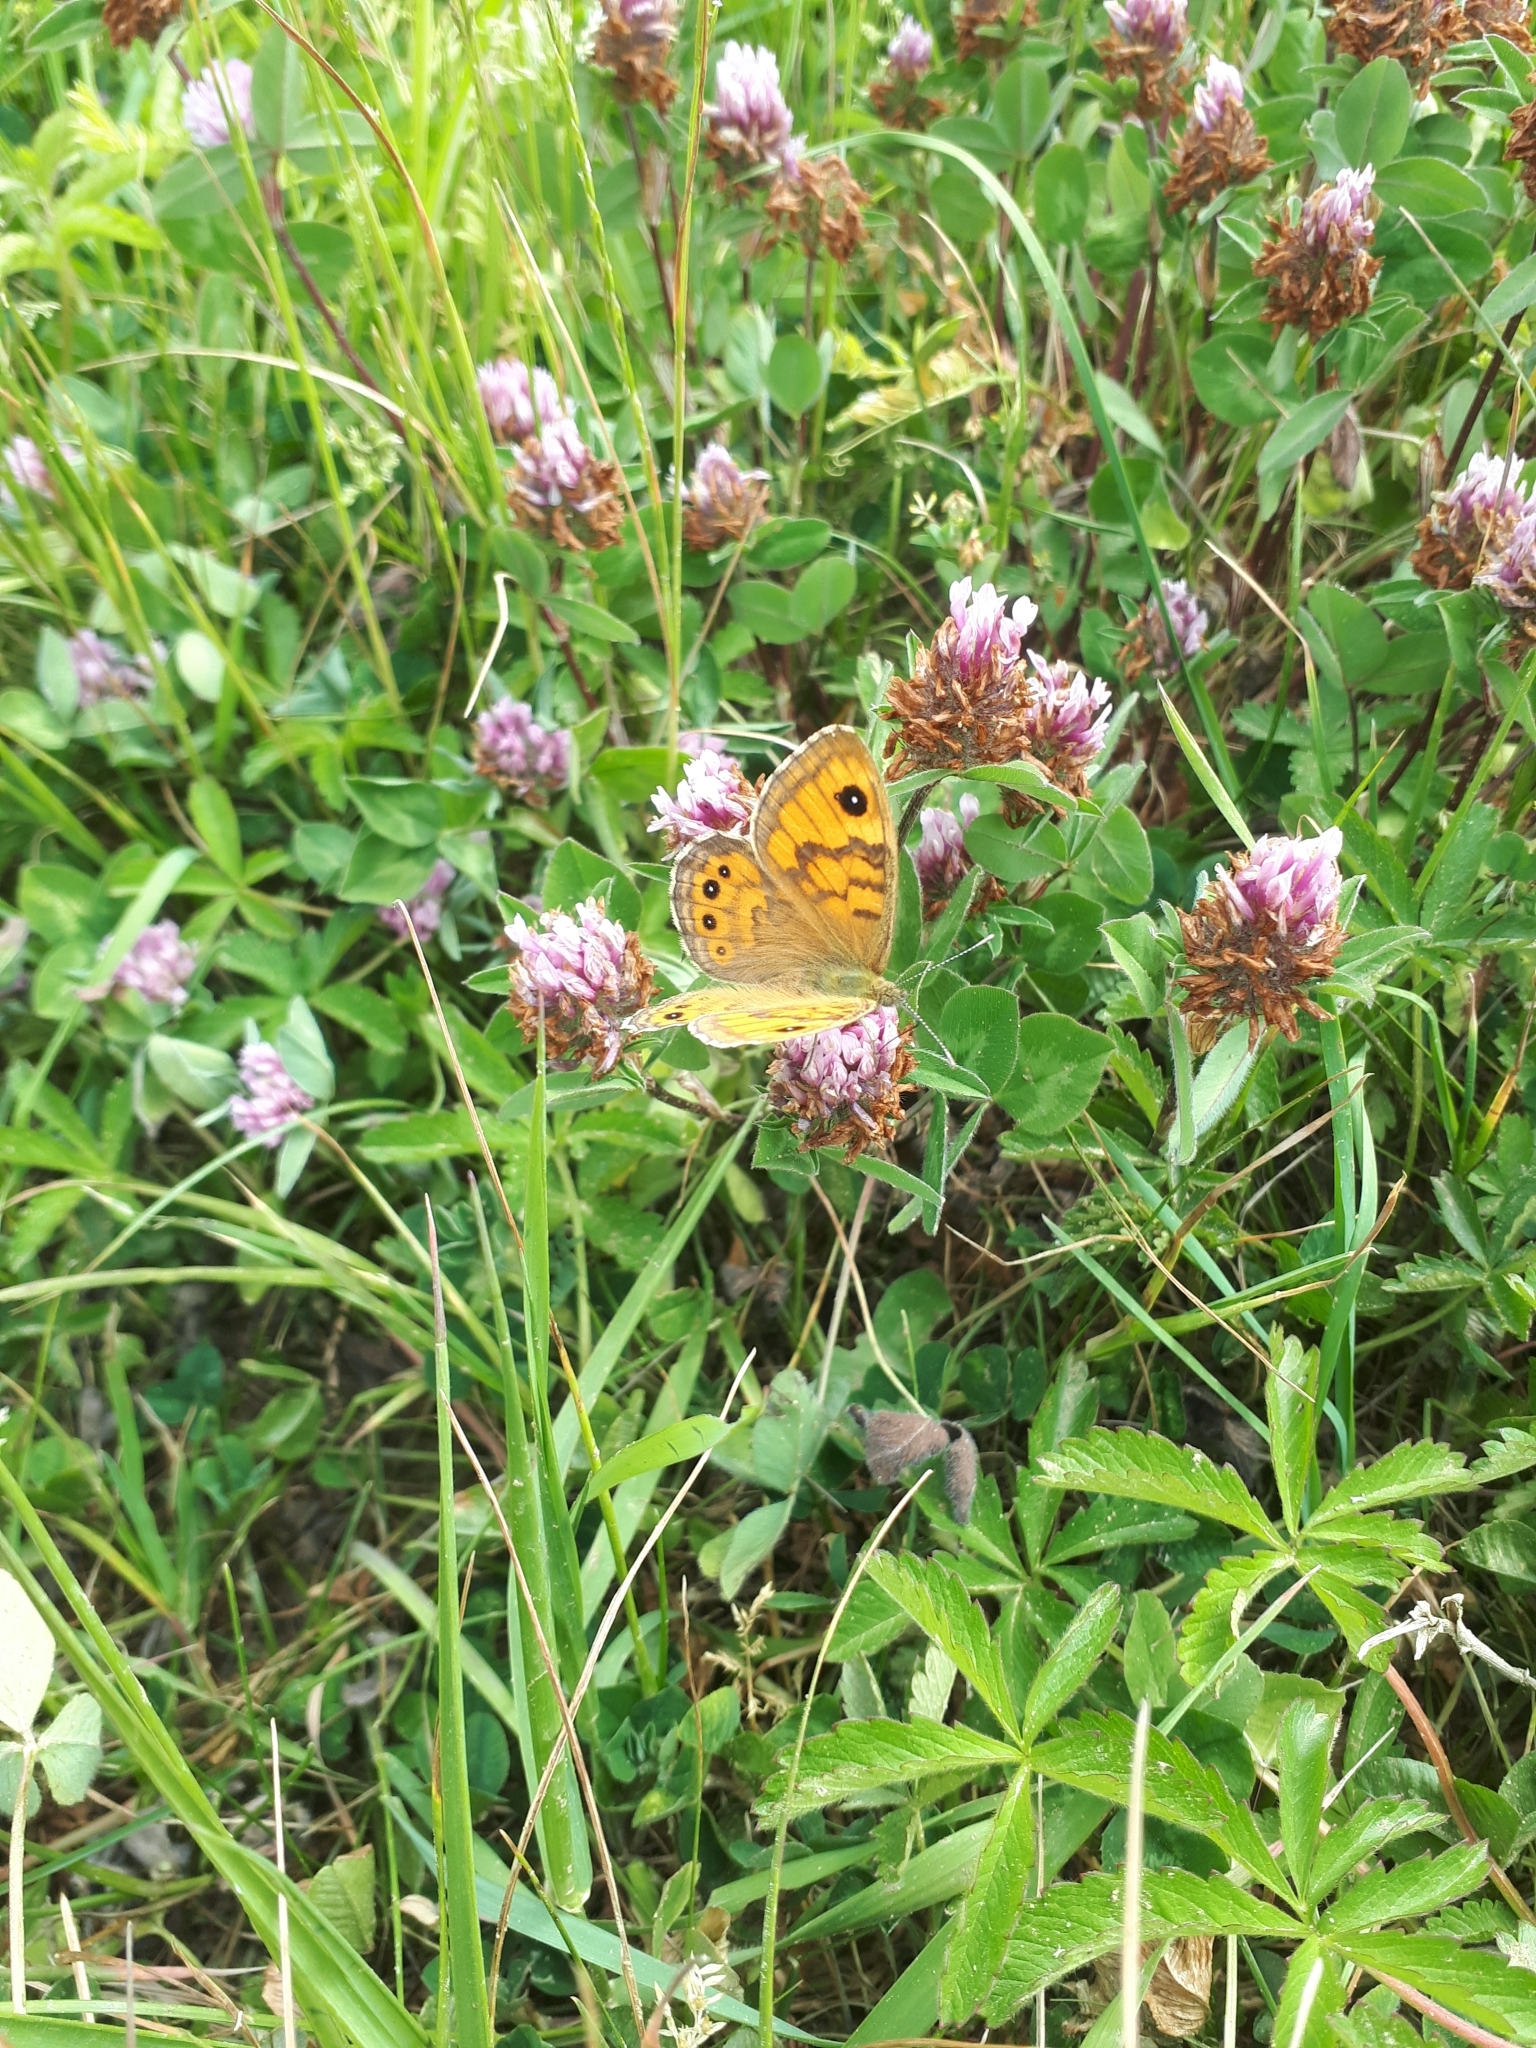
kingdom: Animalia
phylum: Arthropoda
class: Insecta
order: Lepidoptera
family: Nymphalidae
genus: Pararge
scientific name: Pararge Lasiommata megera
